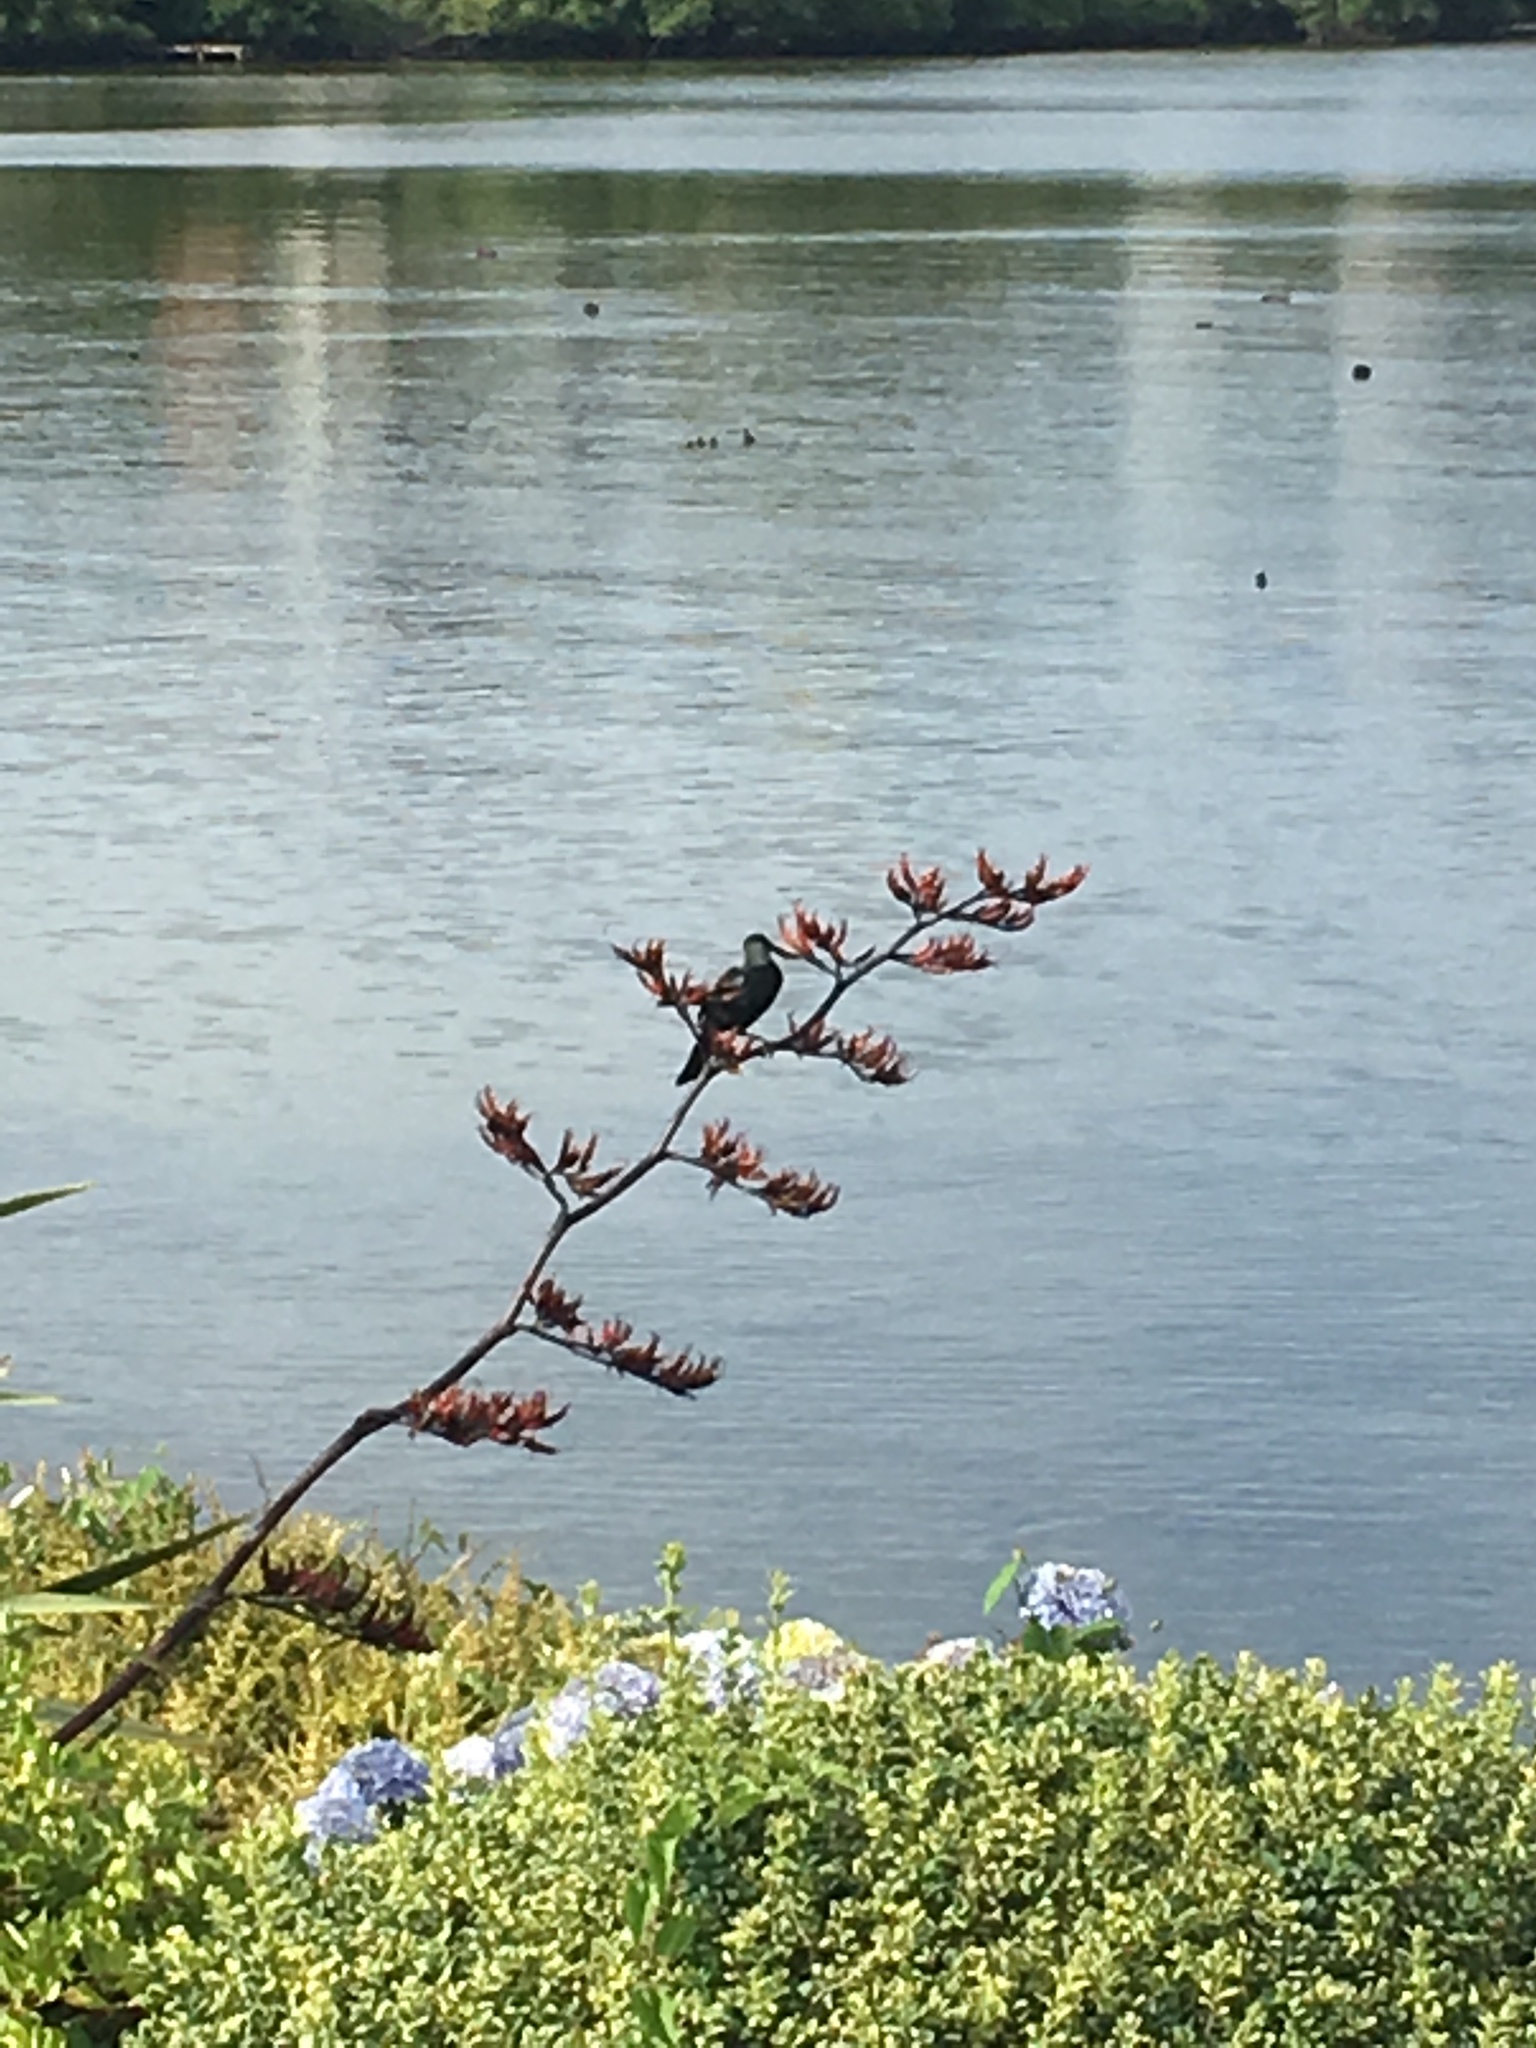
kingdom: Plantae
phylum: Tracheophyta
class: Liliopsida
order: Asparagales
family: Asphodelaceae
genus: Phormium
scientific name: Phormium tenax
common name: New zealand flax
